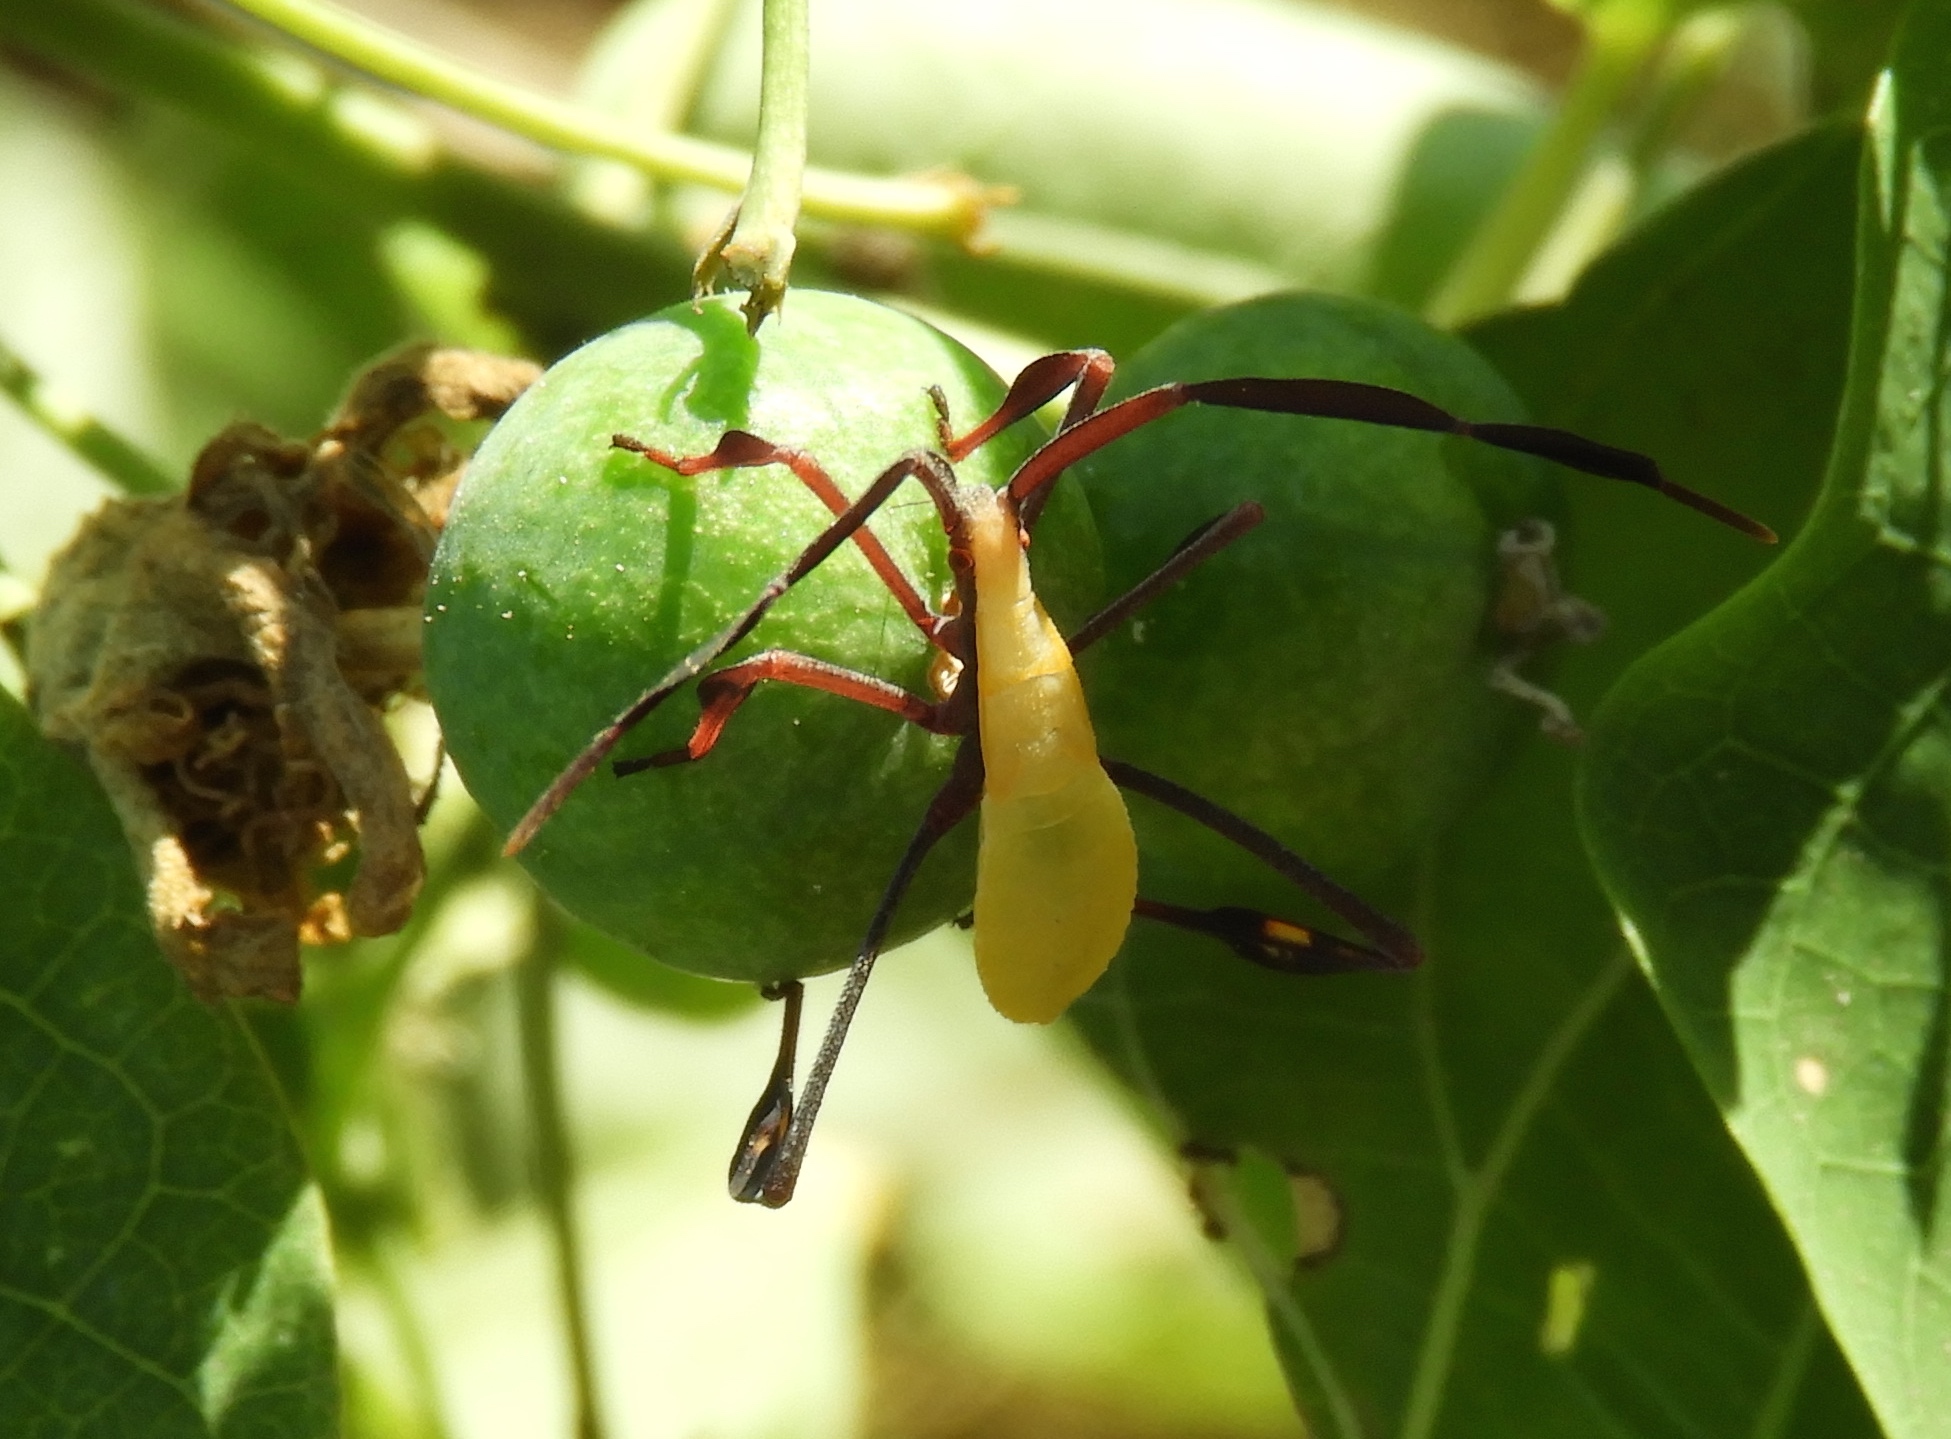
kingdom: Animalia
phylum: Arthropoda
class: Insecta
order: Hemiptera
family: Coreidae
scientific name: Coreidae
